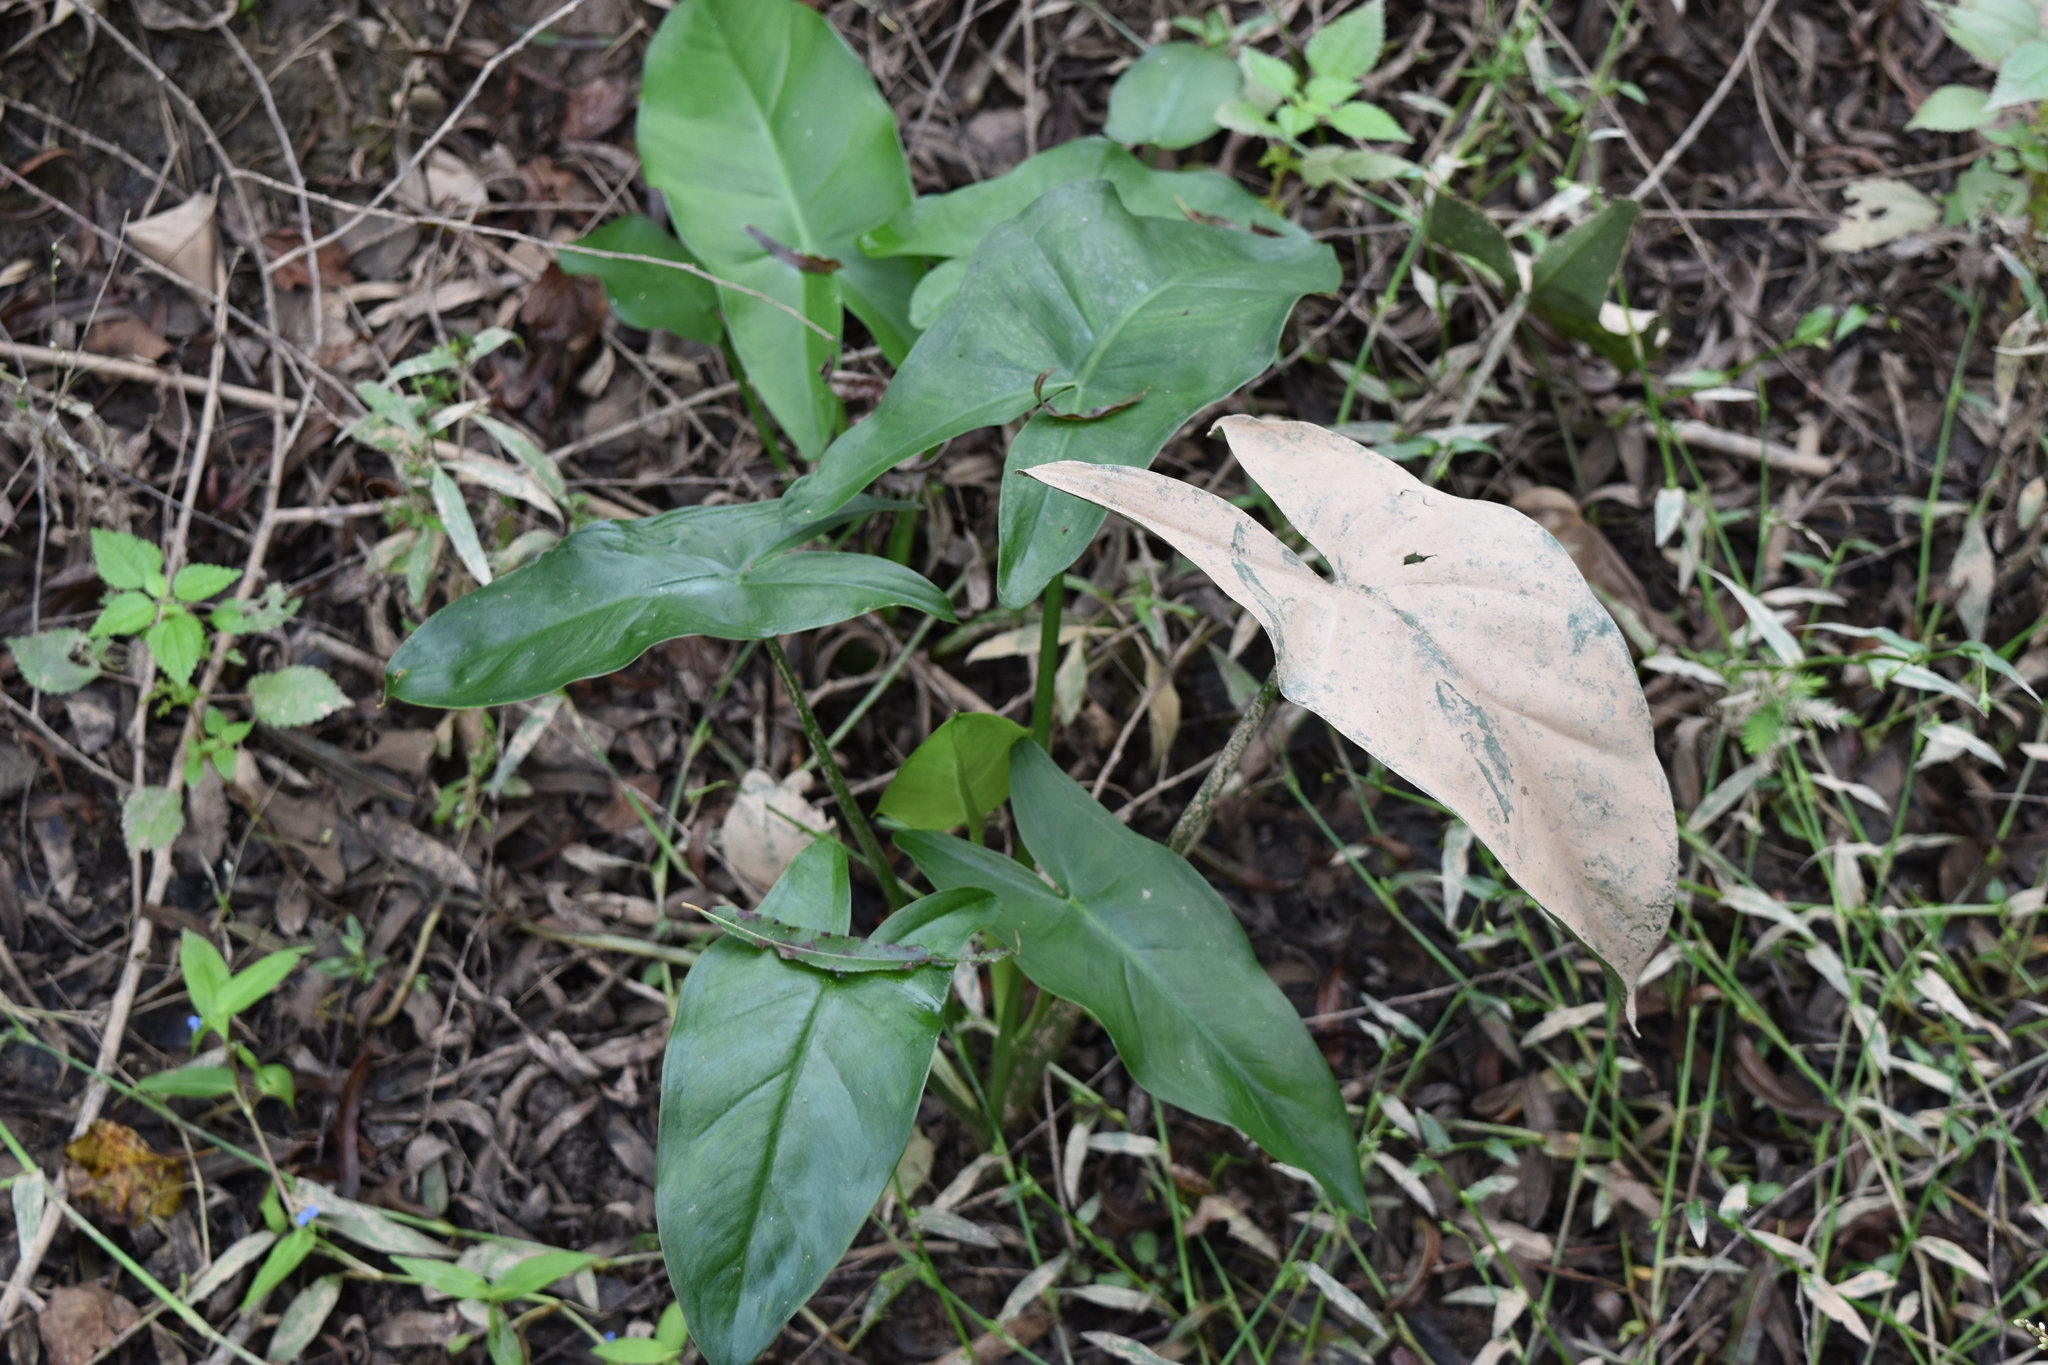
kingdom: Plantae
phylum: Tracheophyta
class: Liliopsida
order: Alismatales
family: Araceae
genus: Peltandra
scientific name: Peltandra virginica
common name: Arrow arum
